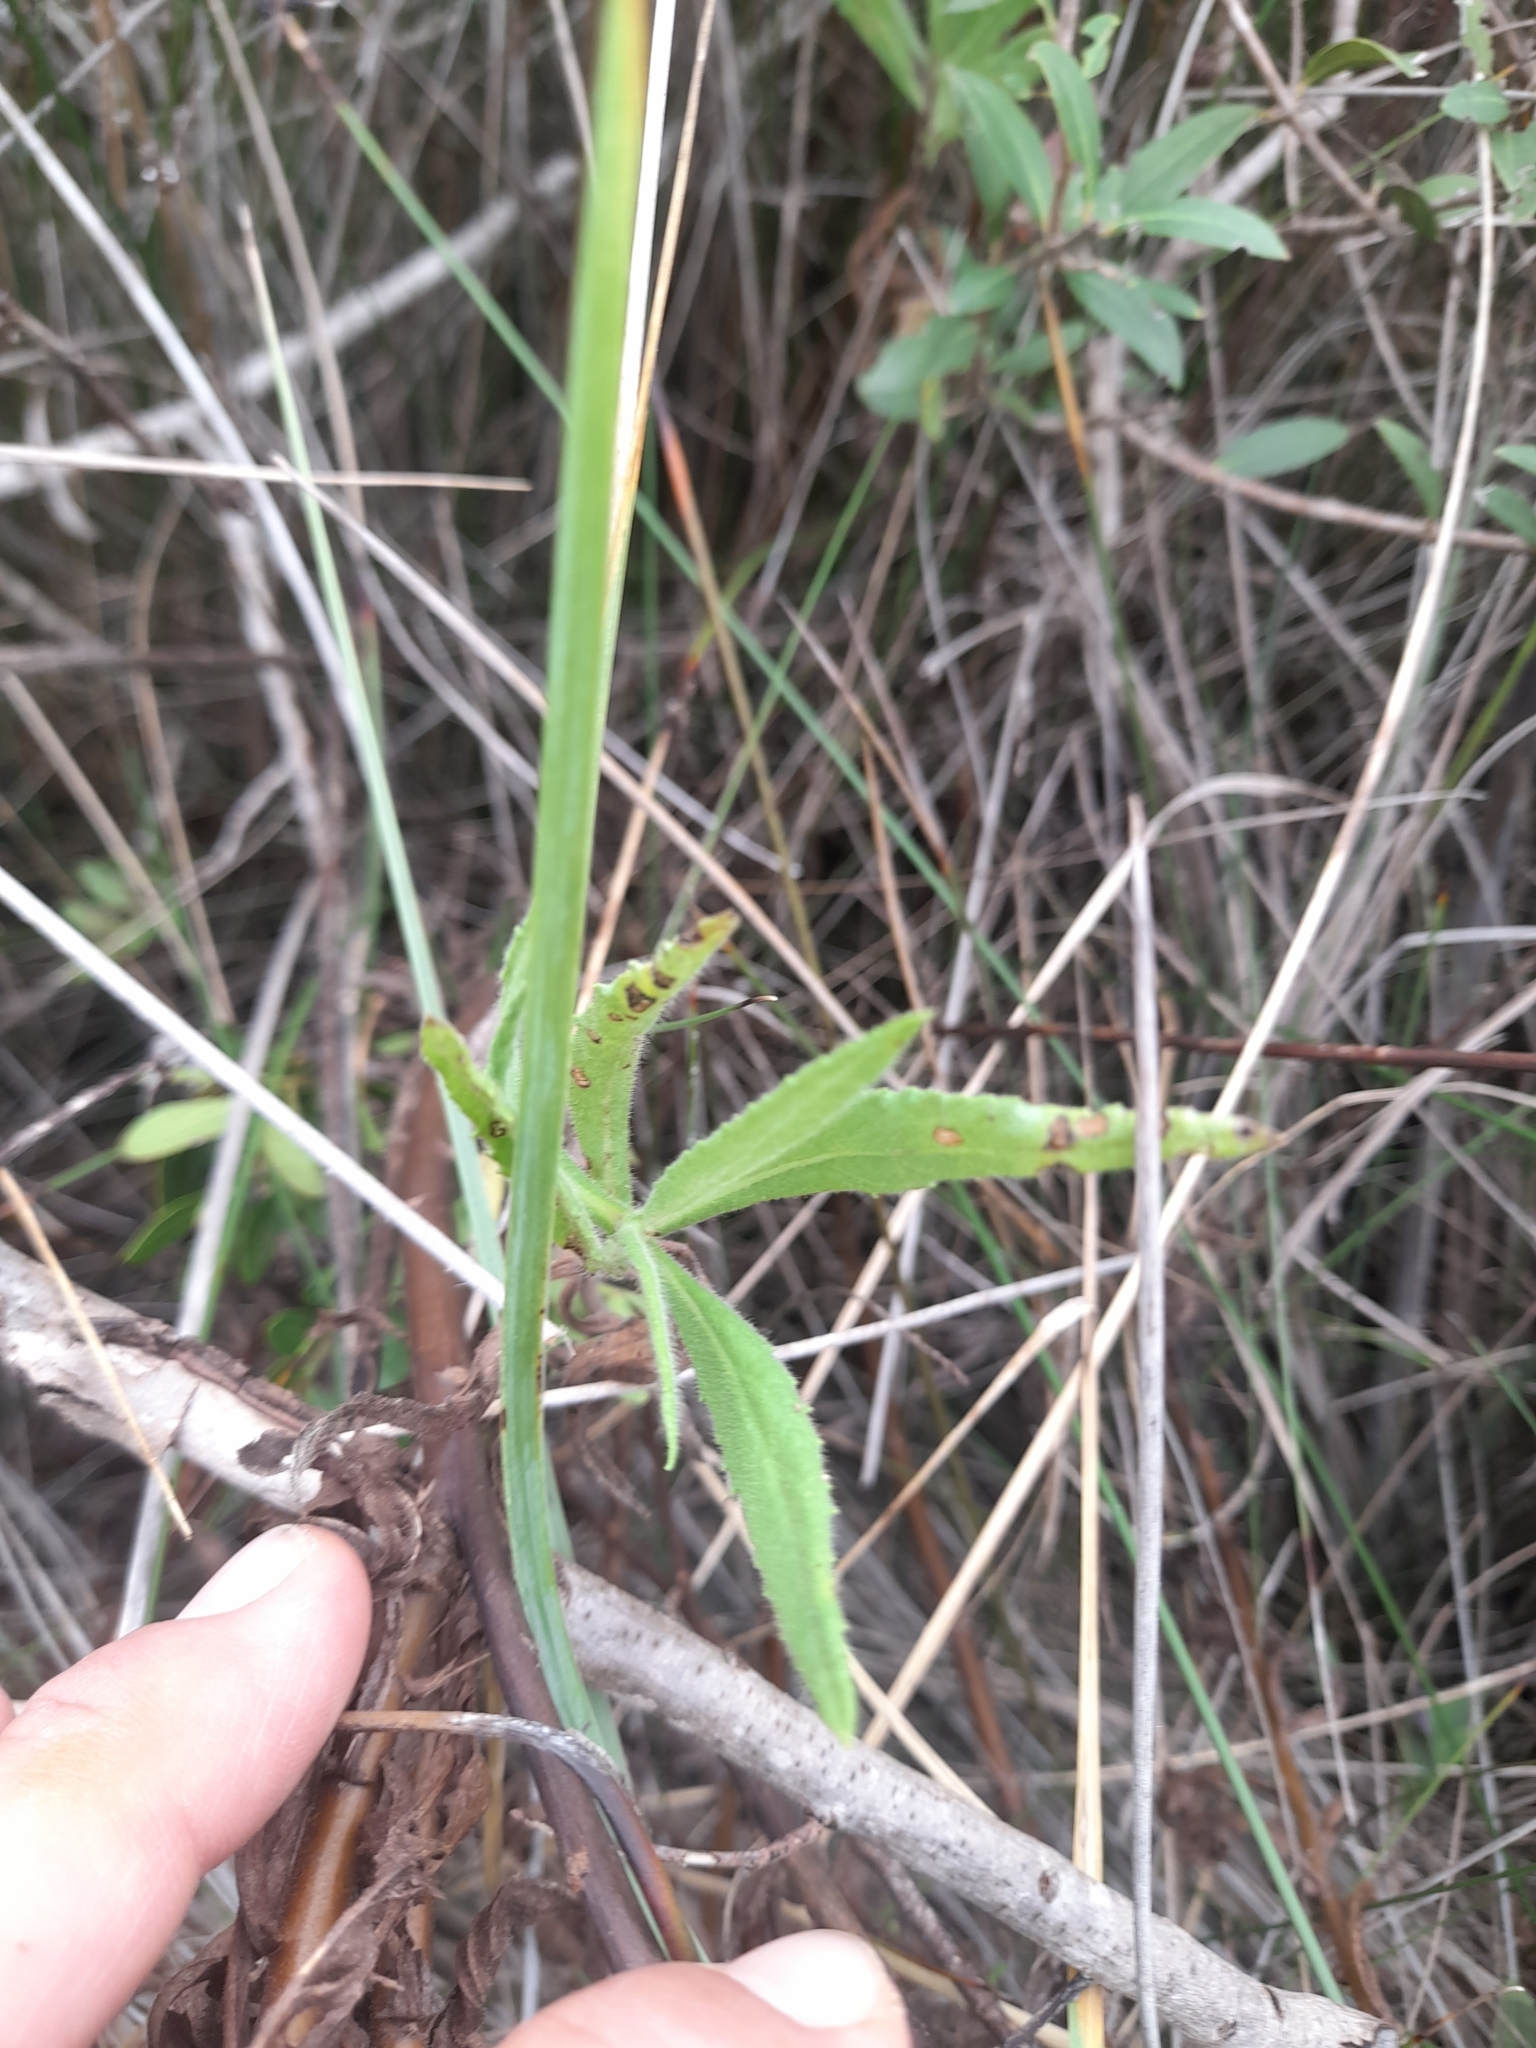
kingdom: Plantae
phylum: Tracheophyta
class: Magnoliopsida
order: Asterales
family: Asteraceae
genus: Dittrichia
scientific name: Dittrichia viscosa
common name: Woody fleabane
